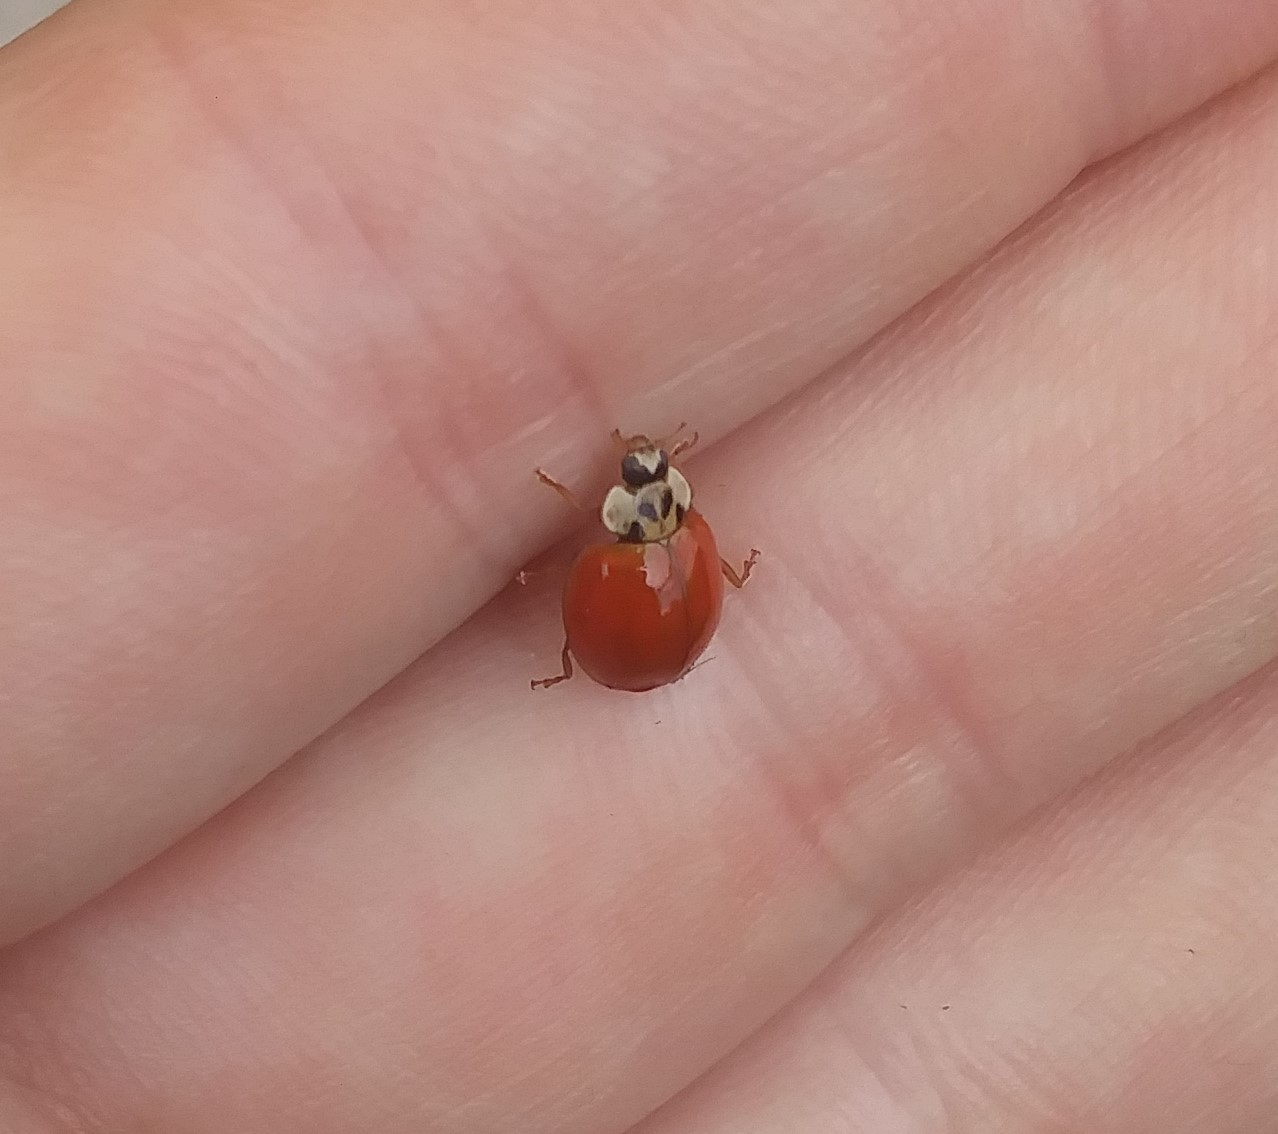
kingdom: Animalia
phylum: Arthropoda
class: Insecta
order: Coleoptera
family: Coccinellidae
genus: Harmonia
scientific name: Harmonia axyridis
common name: Harlequin ladybird
